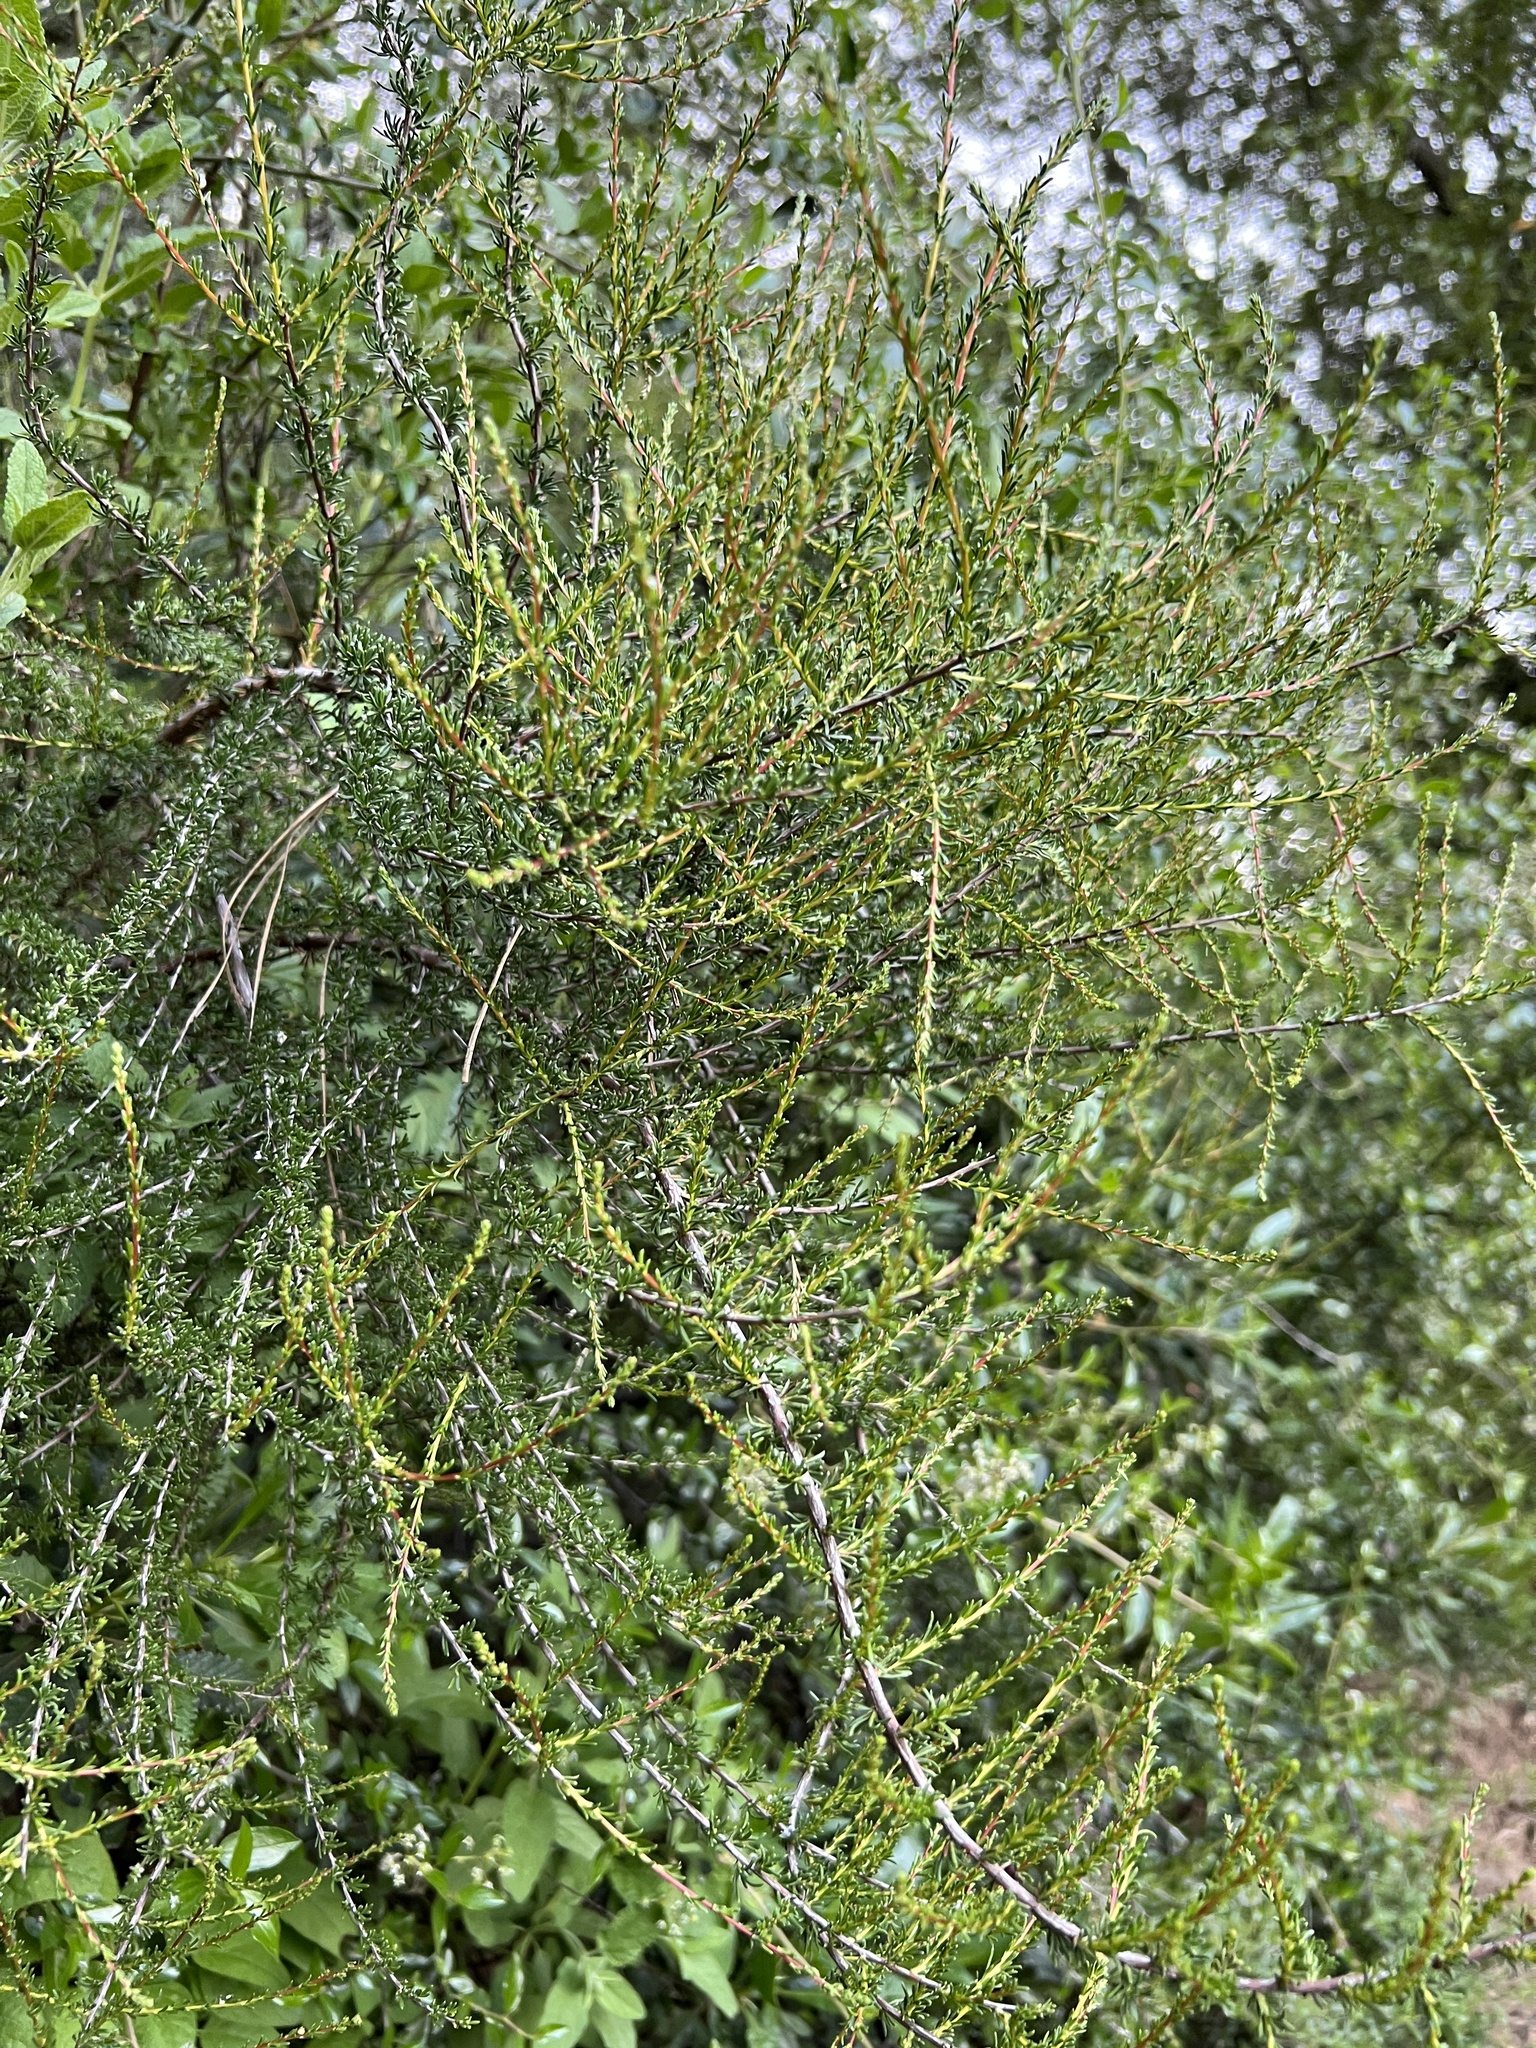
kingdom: Plantae
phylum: Tracheophyta
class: Magnoliopsida
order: Rosales
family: Rosaceae
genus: Adenostoma
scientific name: Adenostoma fasciculatum
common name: Chamise
